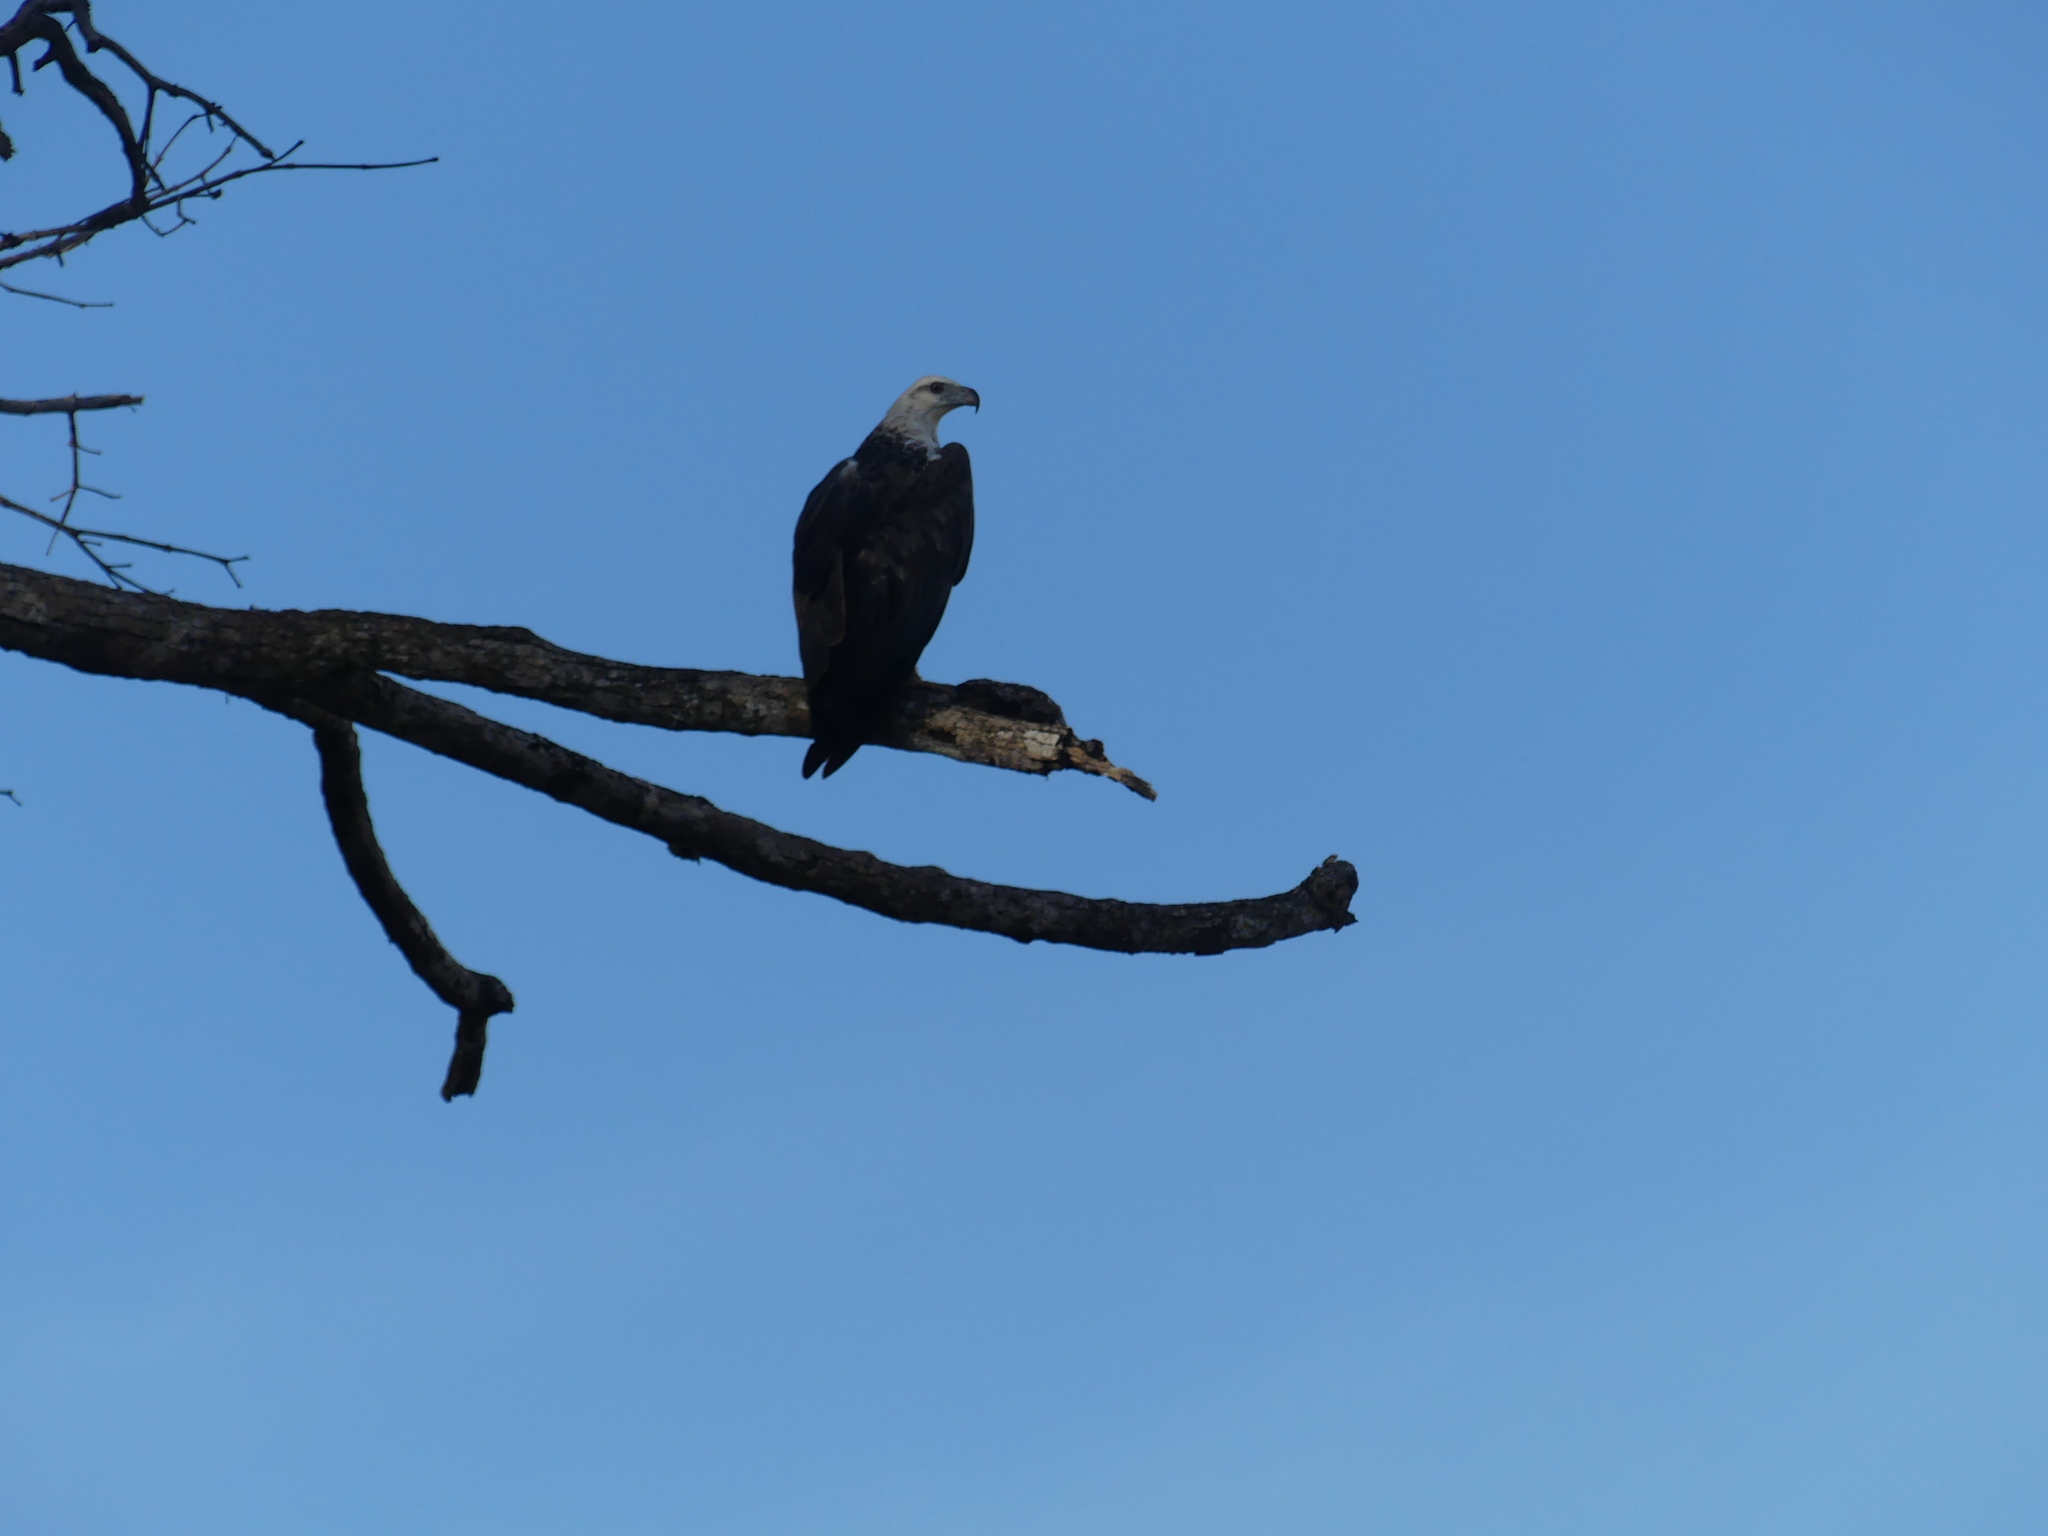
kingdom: Animalia
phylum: Chordata
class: Aves
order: Accipitriformes
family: Accipitridae
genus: Haliaeetus
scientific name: Haliaeetus leucogaster
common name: White-bellied sea eagle
